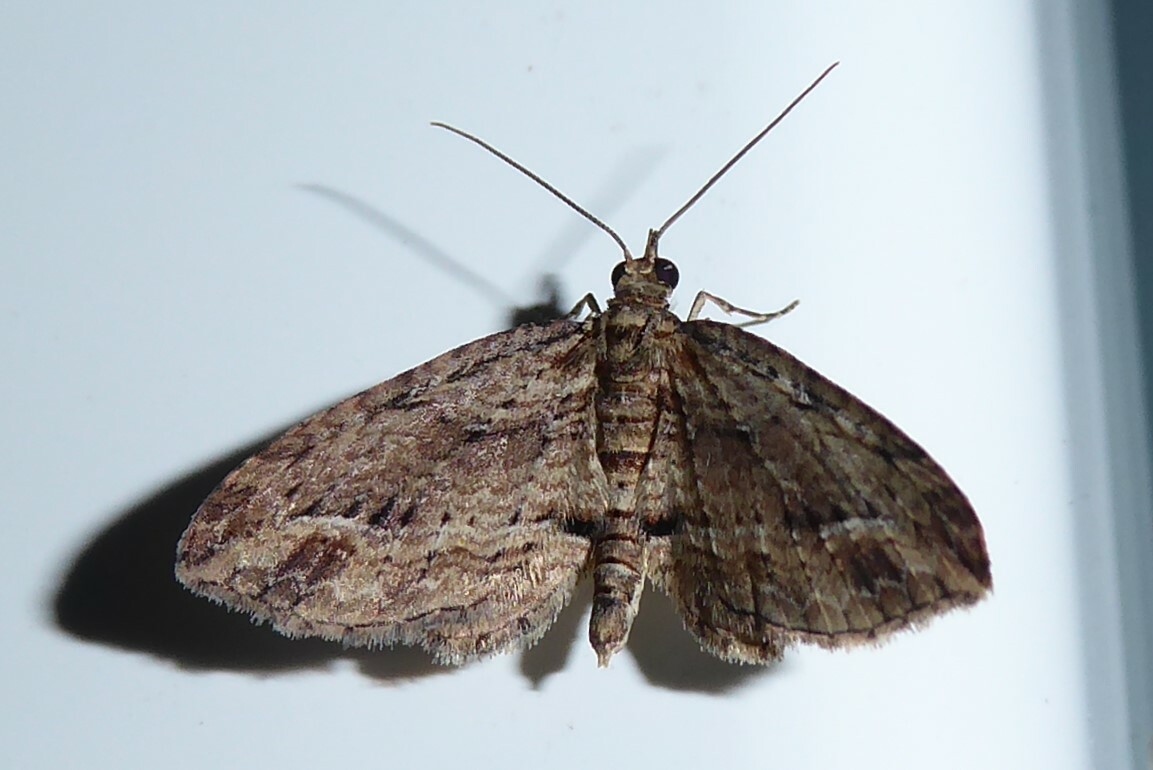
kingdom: Animalia
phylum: Arthropoda
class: Insecta
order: Lepidoptera
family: Geometridae
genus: Chloroclystis
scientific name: Chloroclystis filata
